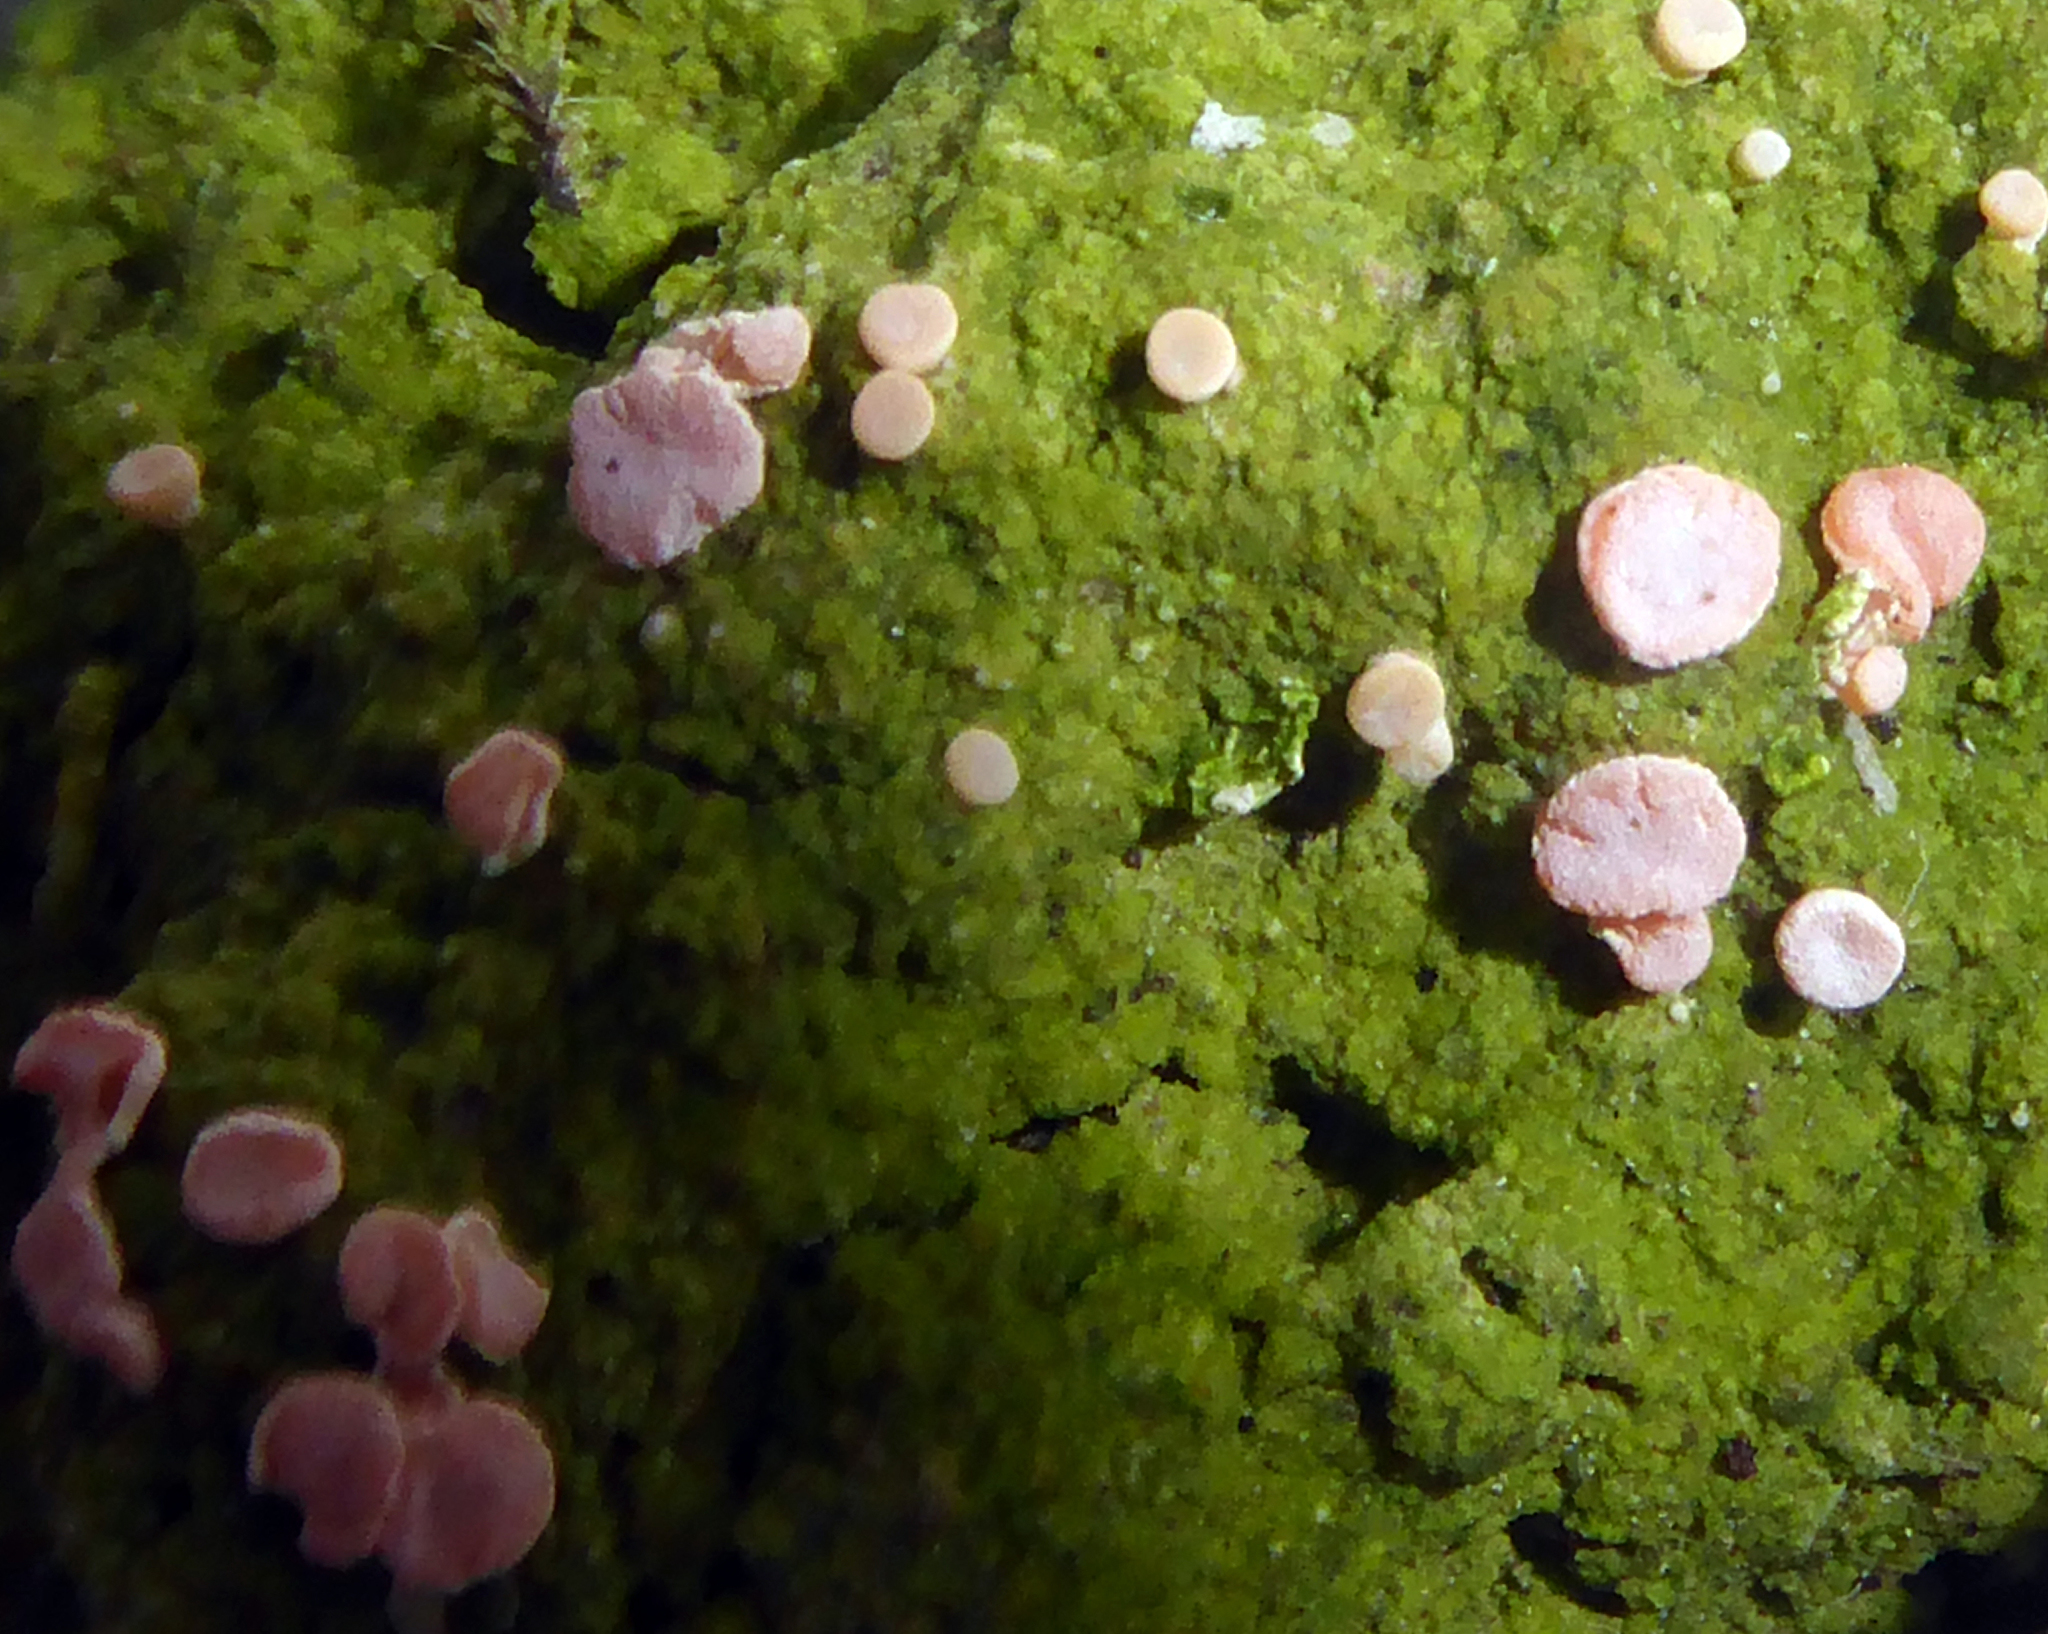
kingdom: Fungi
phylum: Ascomycota
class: Lecanoromycetes
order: Pertusariales
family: Icmadophilaceae
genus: Dibaeis
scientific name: Dibaeis absoluta
